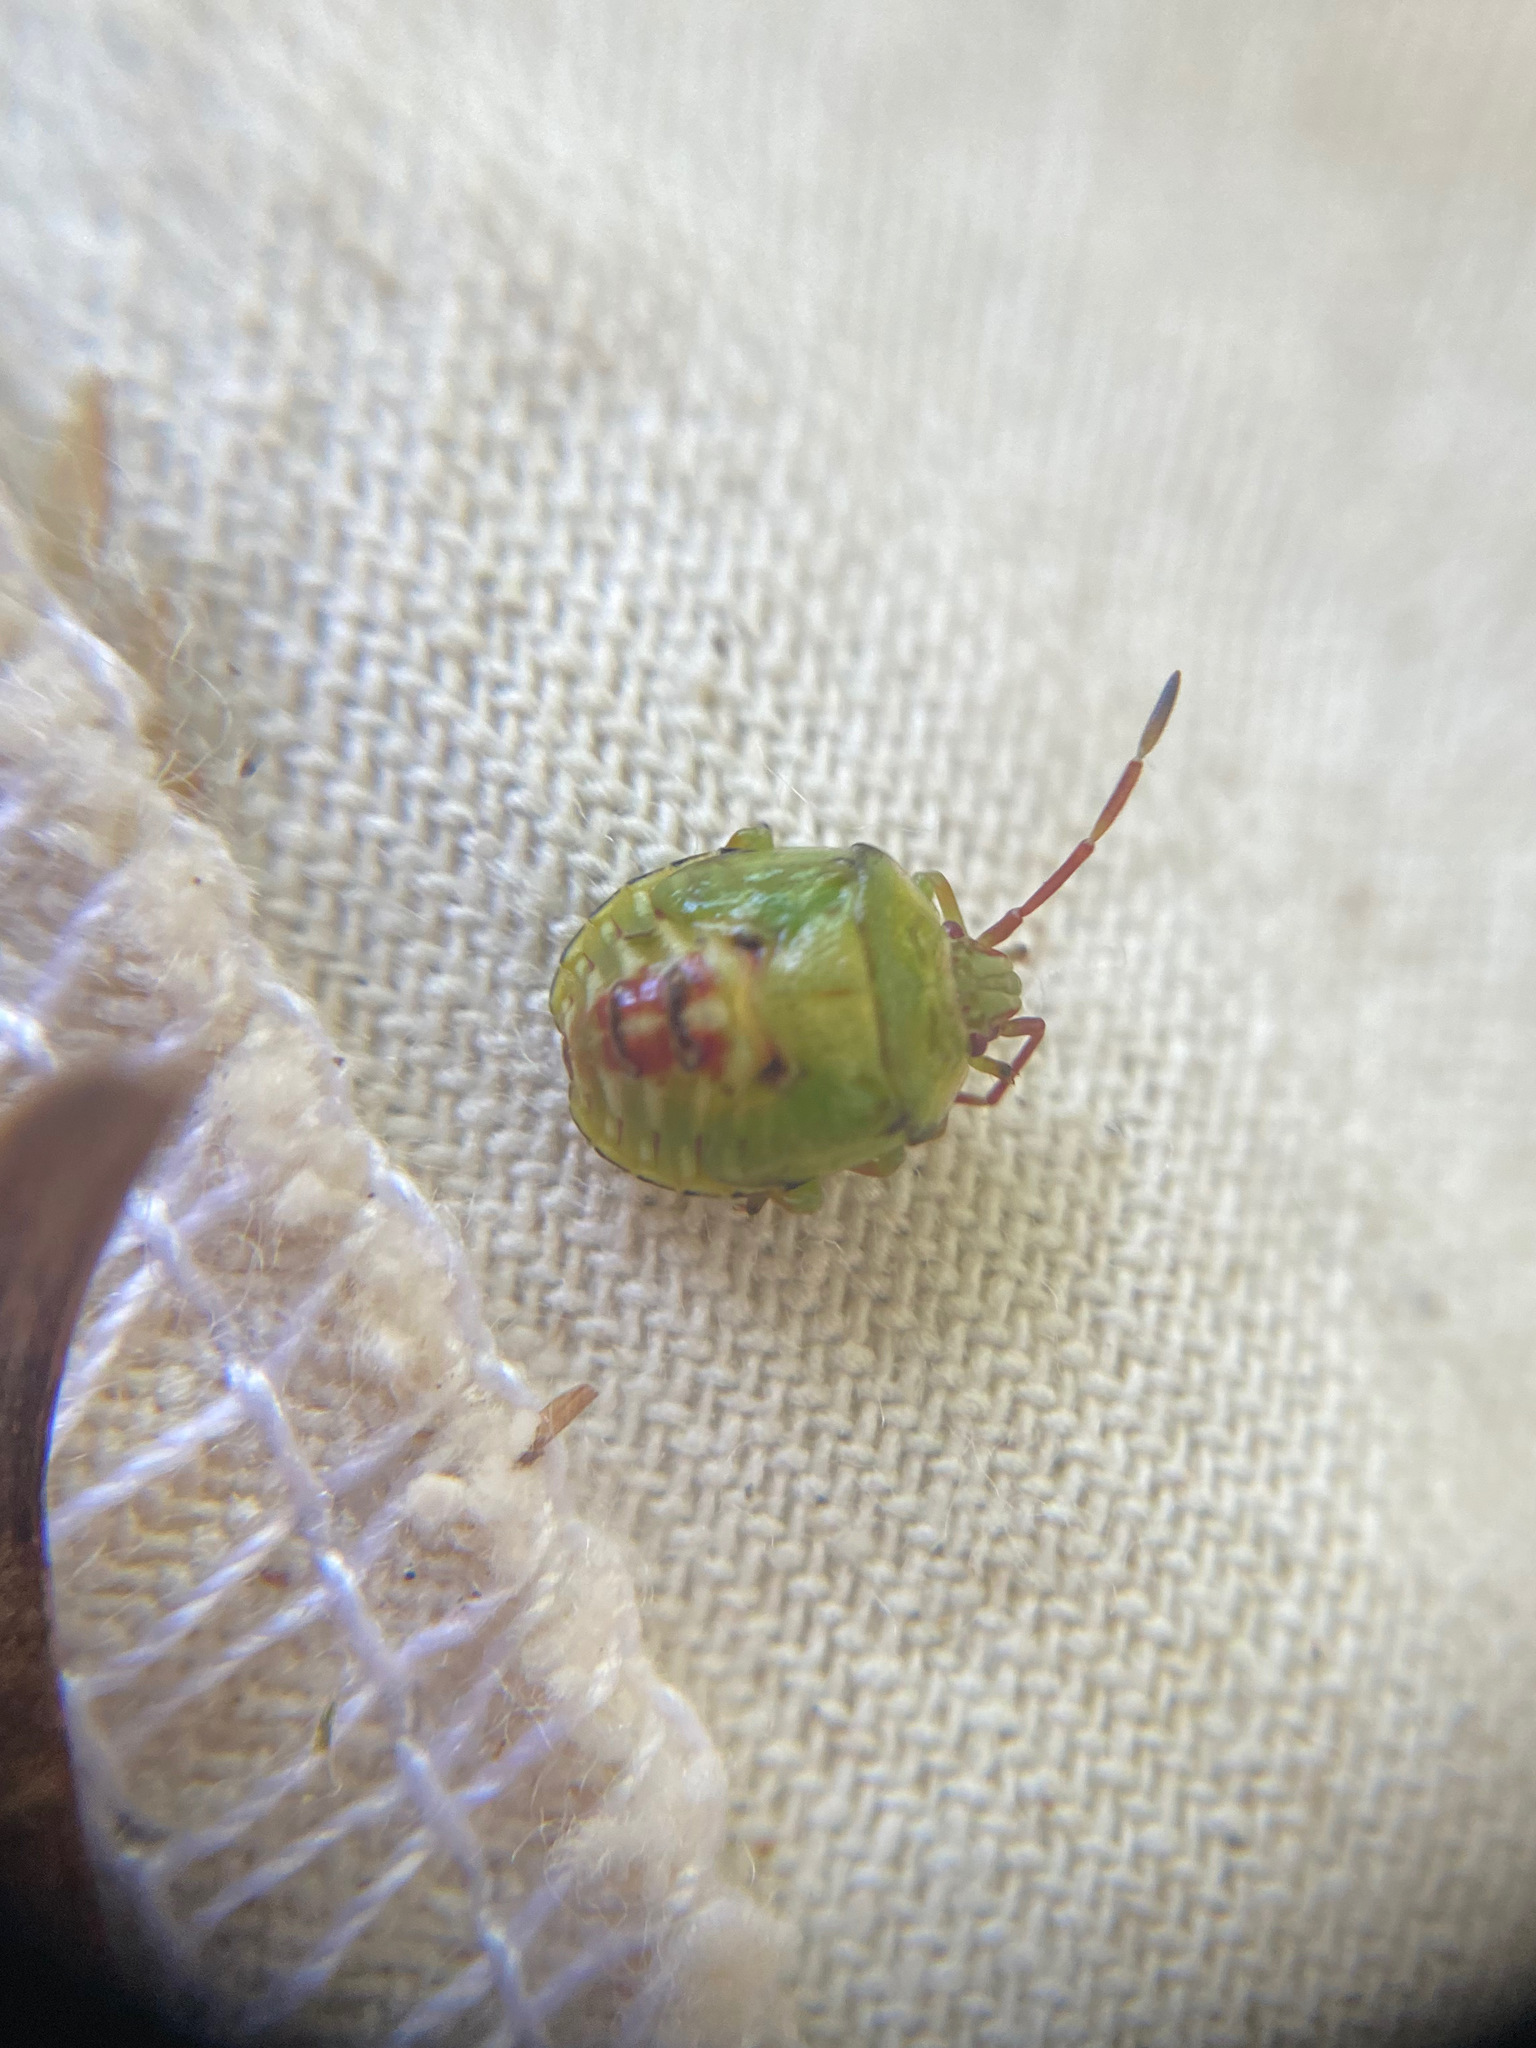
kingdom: Animalia
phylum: Arthropoda
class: Insecta
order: Hemiptera
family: Acanthosomatidae
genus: Elasmostethus
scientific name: Elasmostethus cruciatus
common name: Red-cross shield bug
